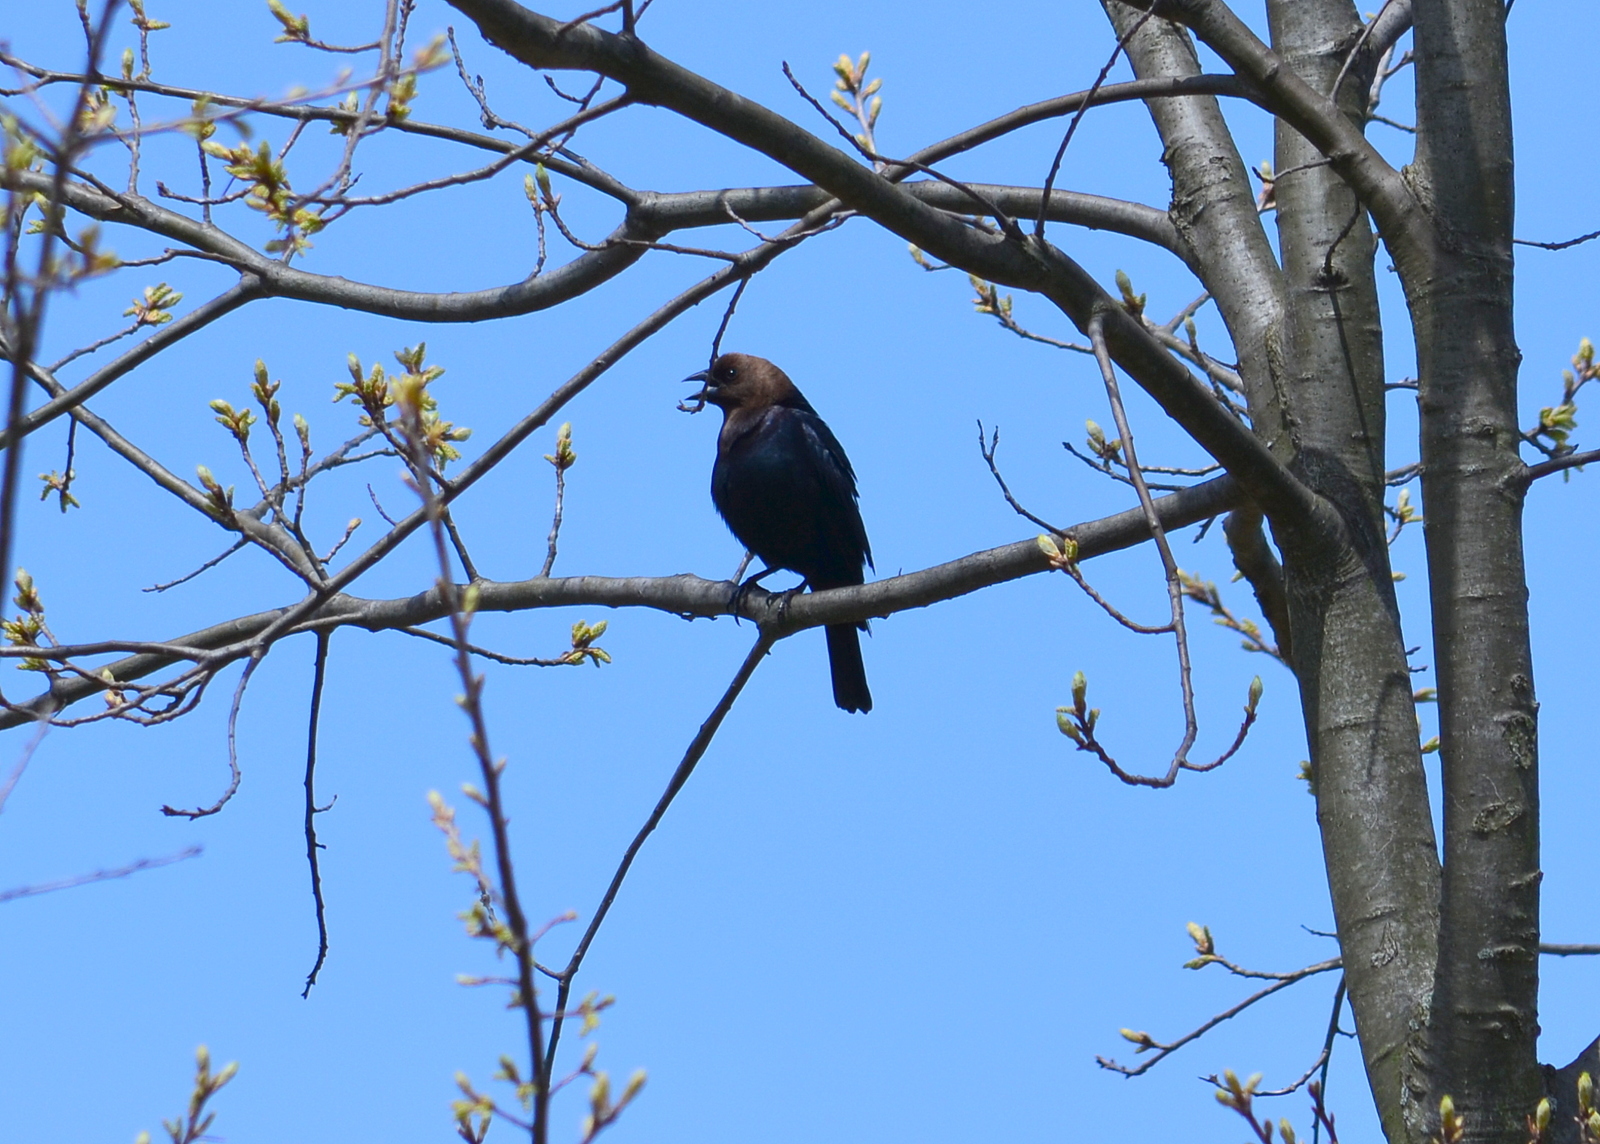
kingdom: Animalia
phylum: Chordata
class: Aves
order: Passeriformes
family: Icteridae
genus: Molothrus
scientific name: Molothrus ater
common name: Brown-headed cowbird
